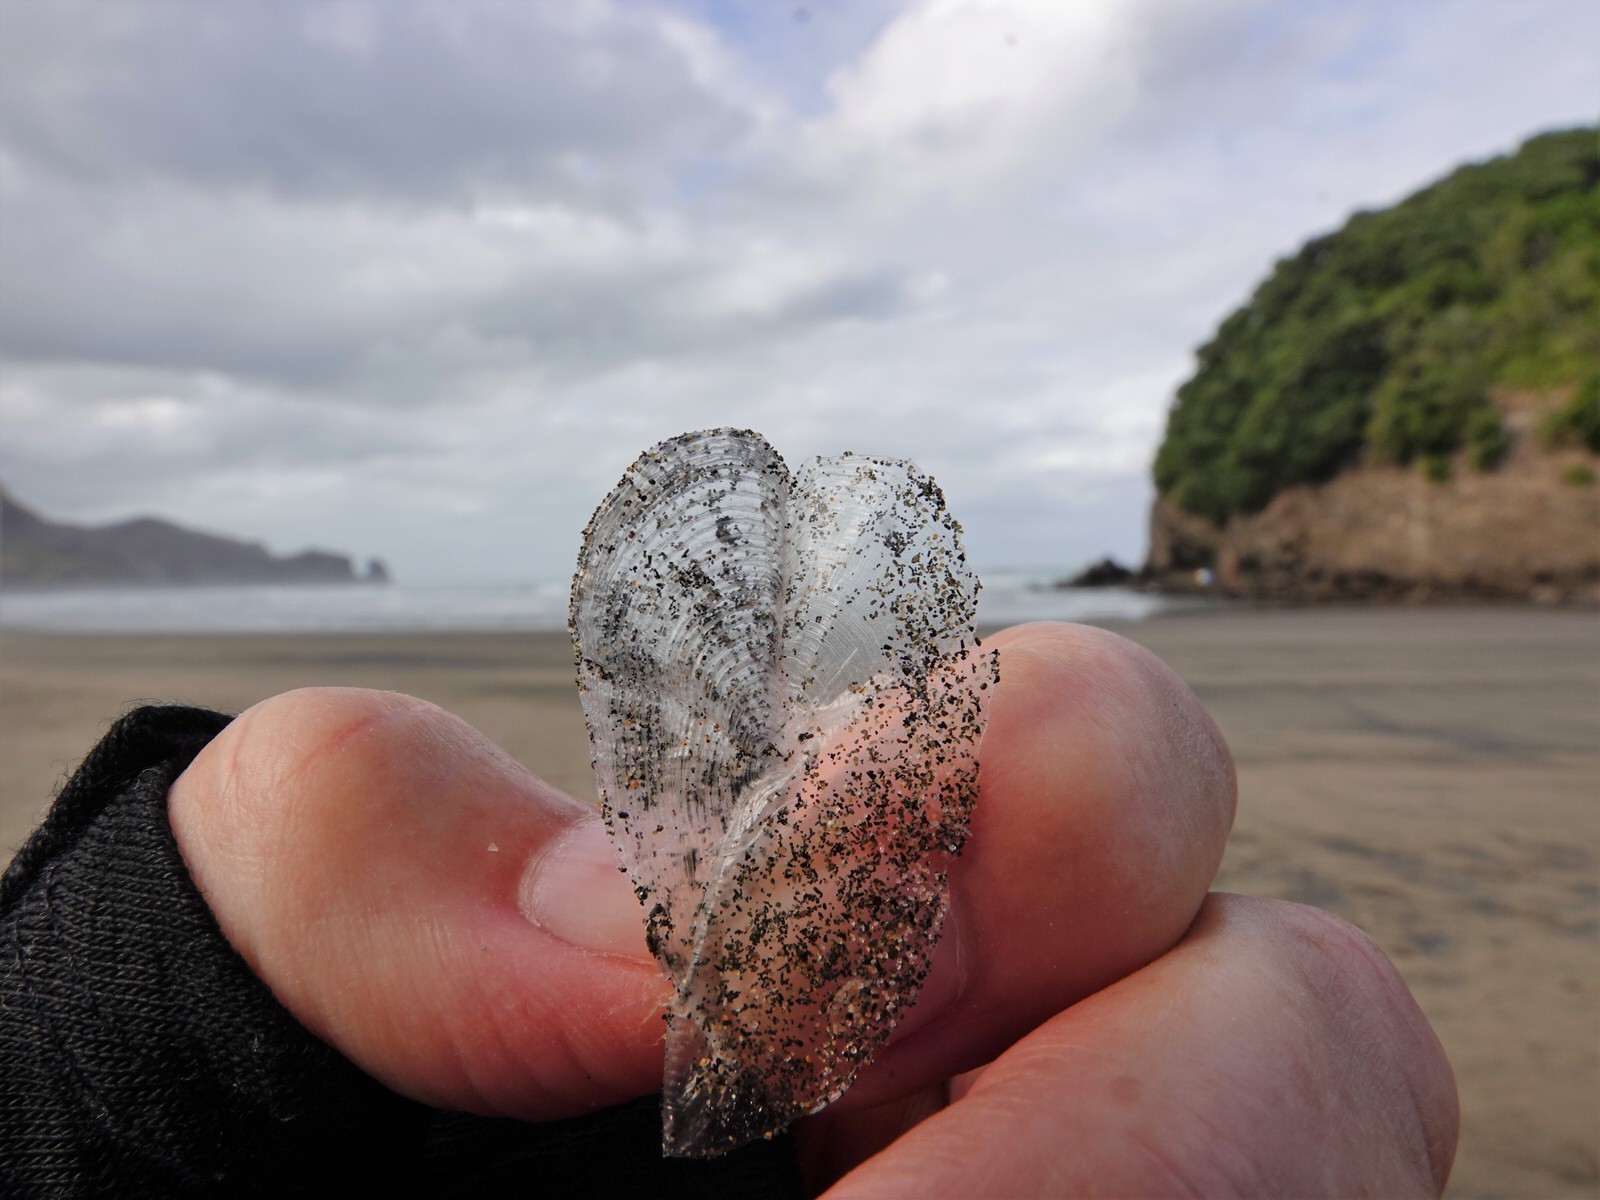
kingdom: Animalia
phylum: Cnidaria
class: Hydrozoa
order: Anthoathecata
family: Porpitidae
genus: Velella
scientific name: Velella velella
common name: By-the-wind-sailor
